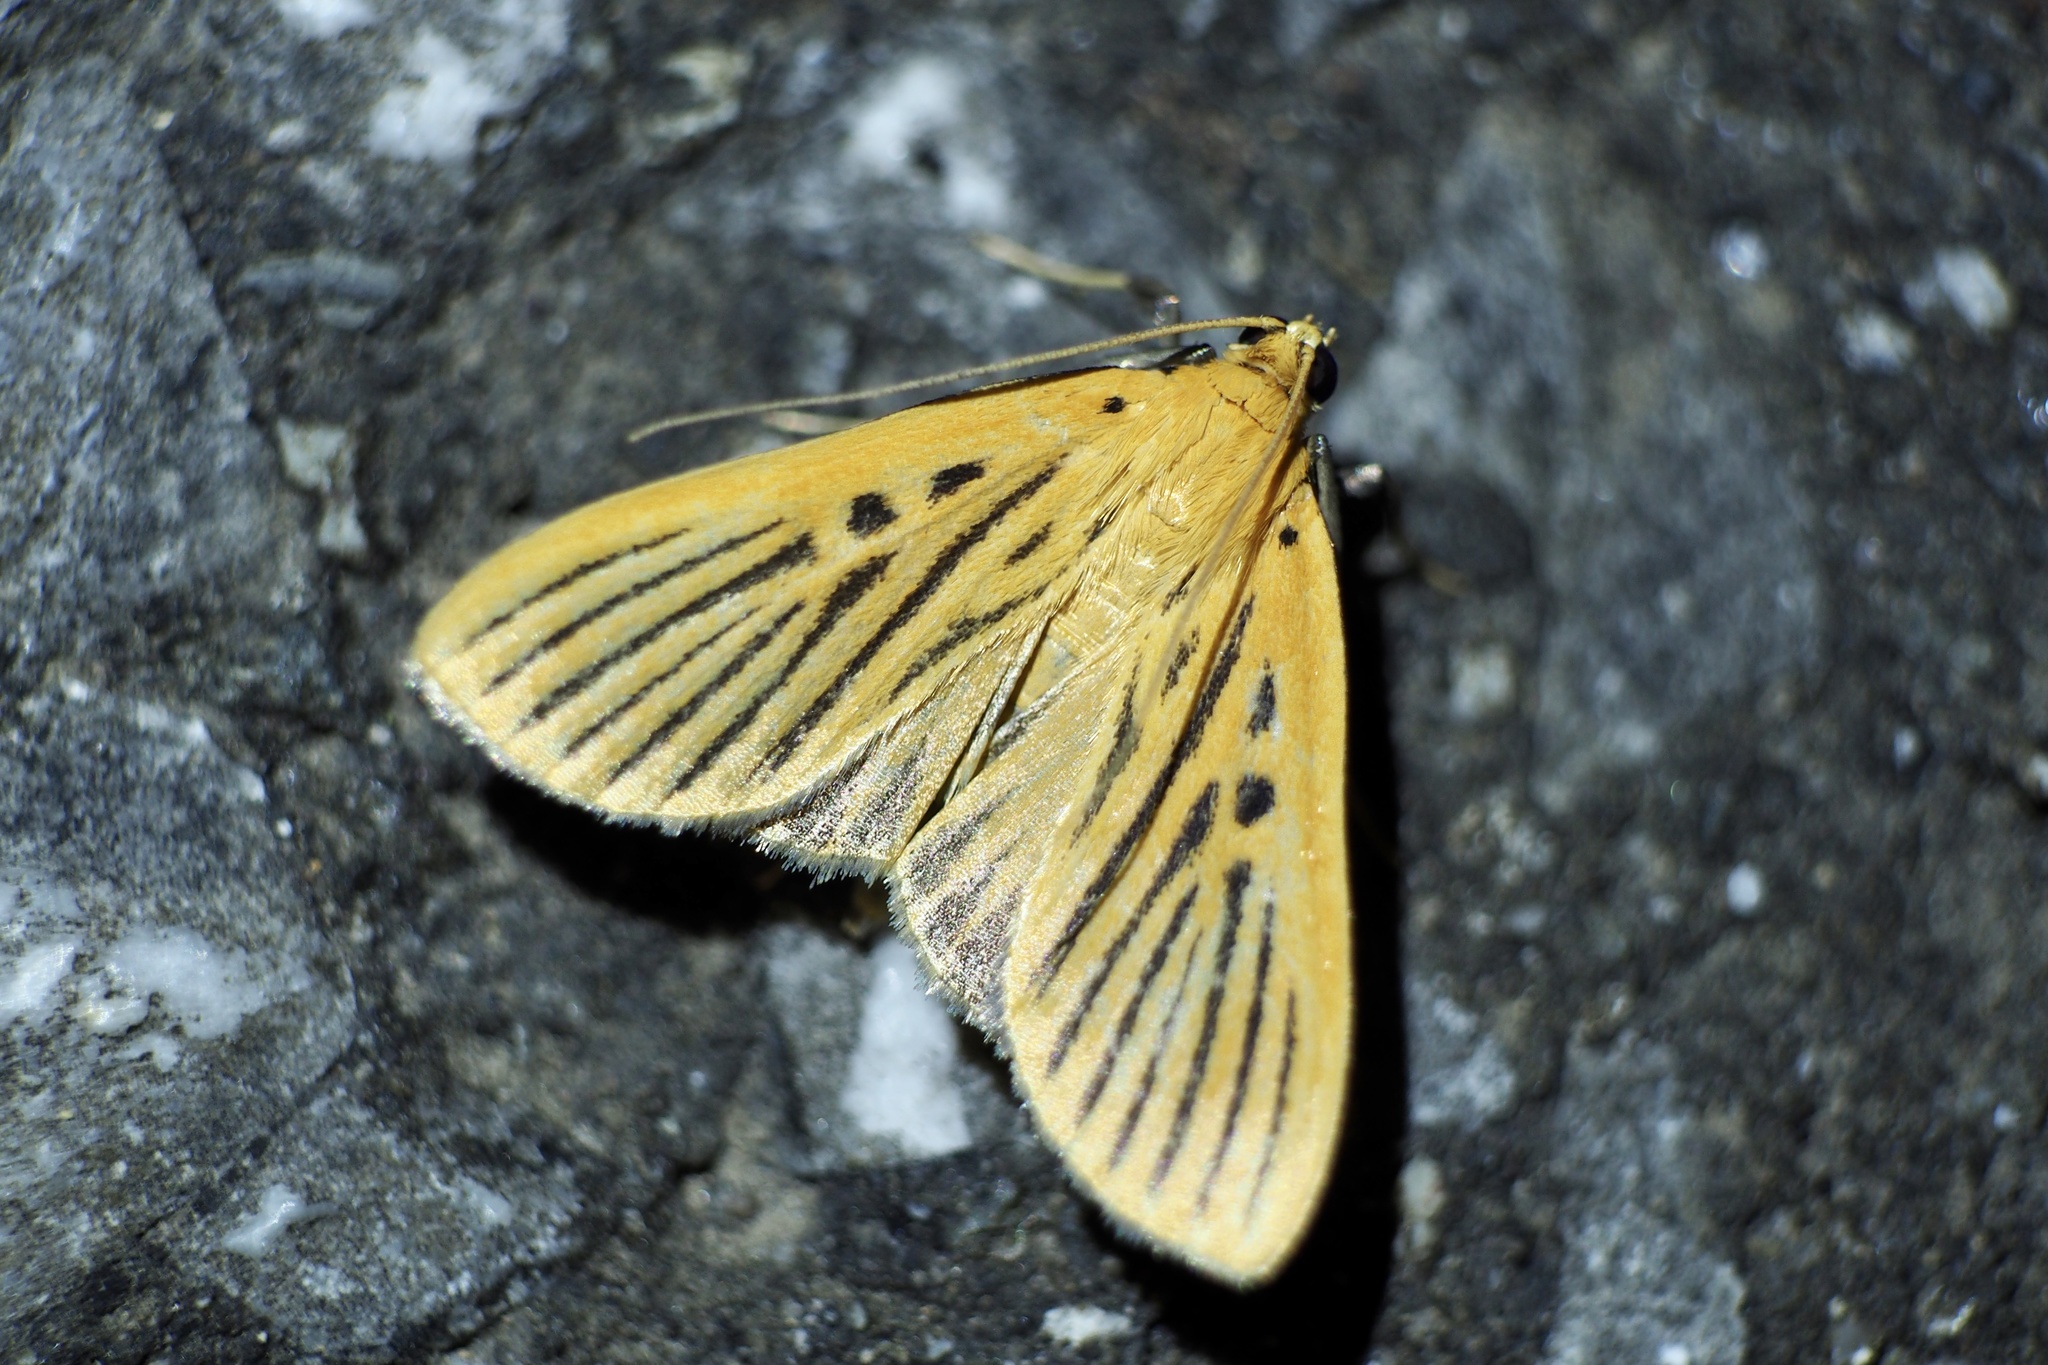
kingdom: Animalia
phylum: Arthropoda
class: Insecta
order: Lepidoptera
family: Crambidae
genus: Tyspanodes
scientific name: Tyspanodes striata
